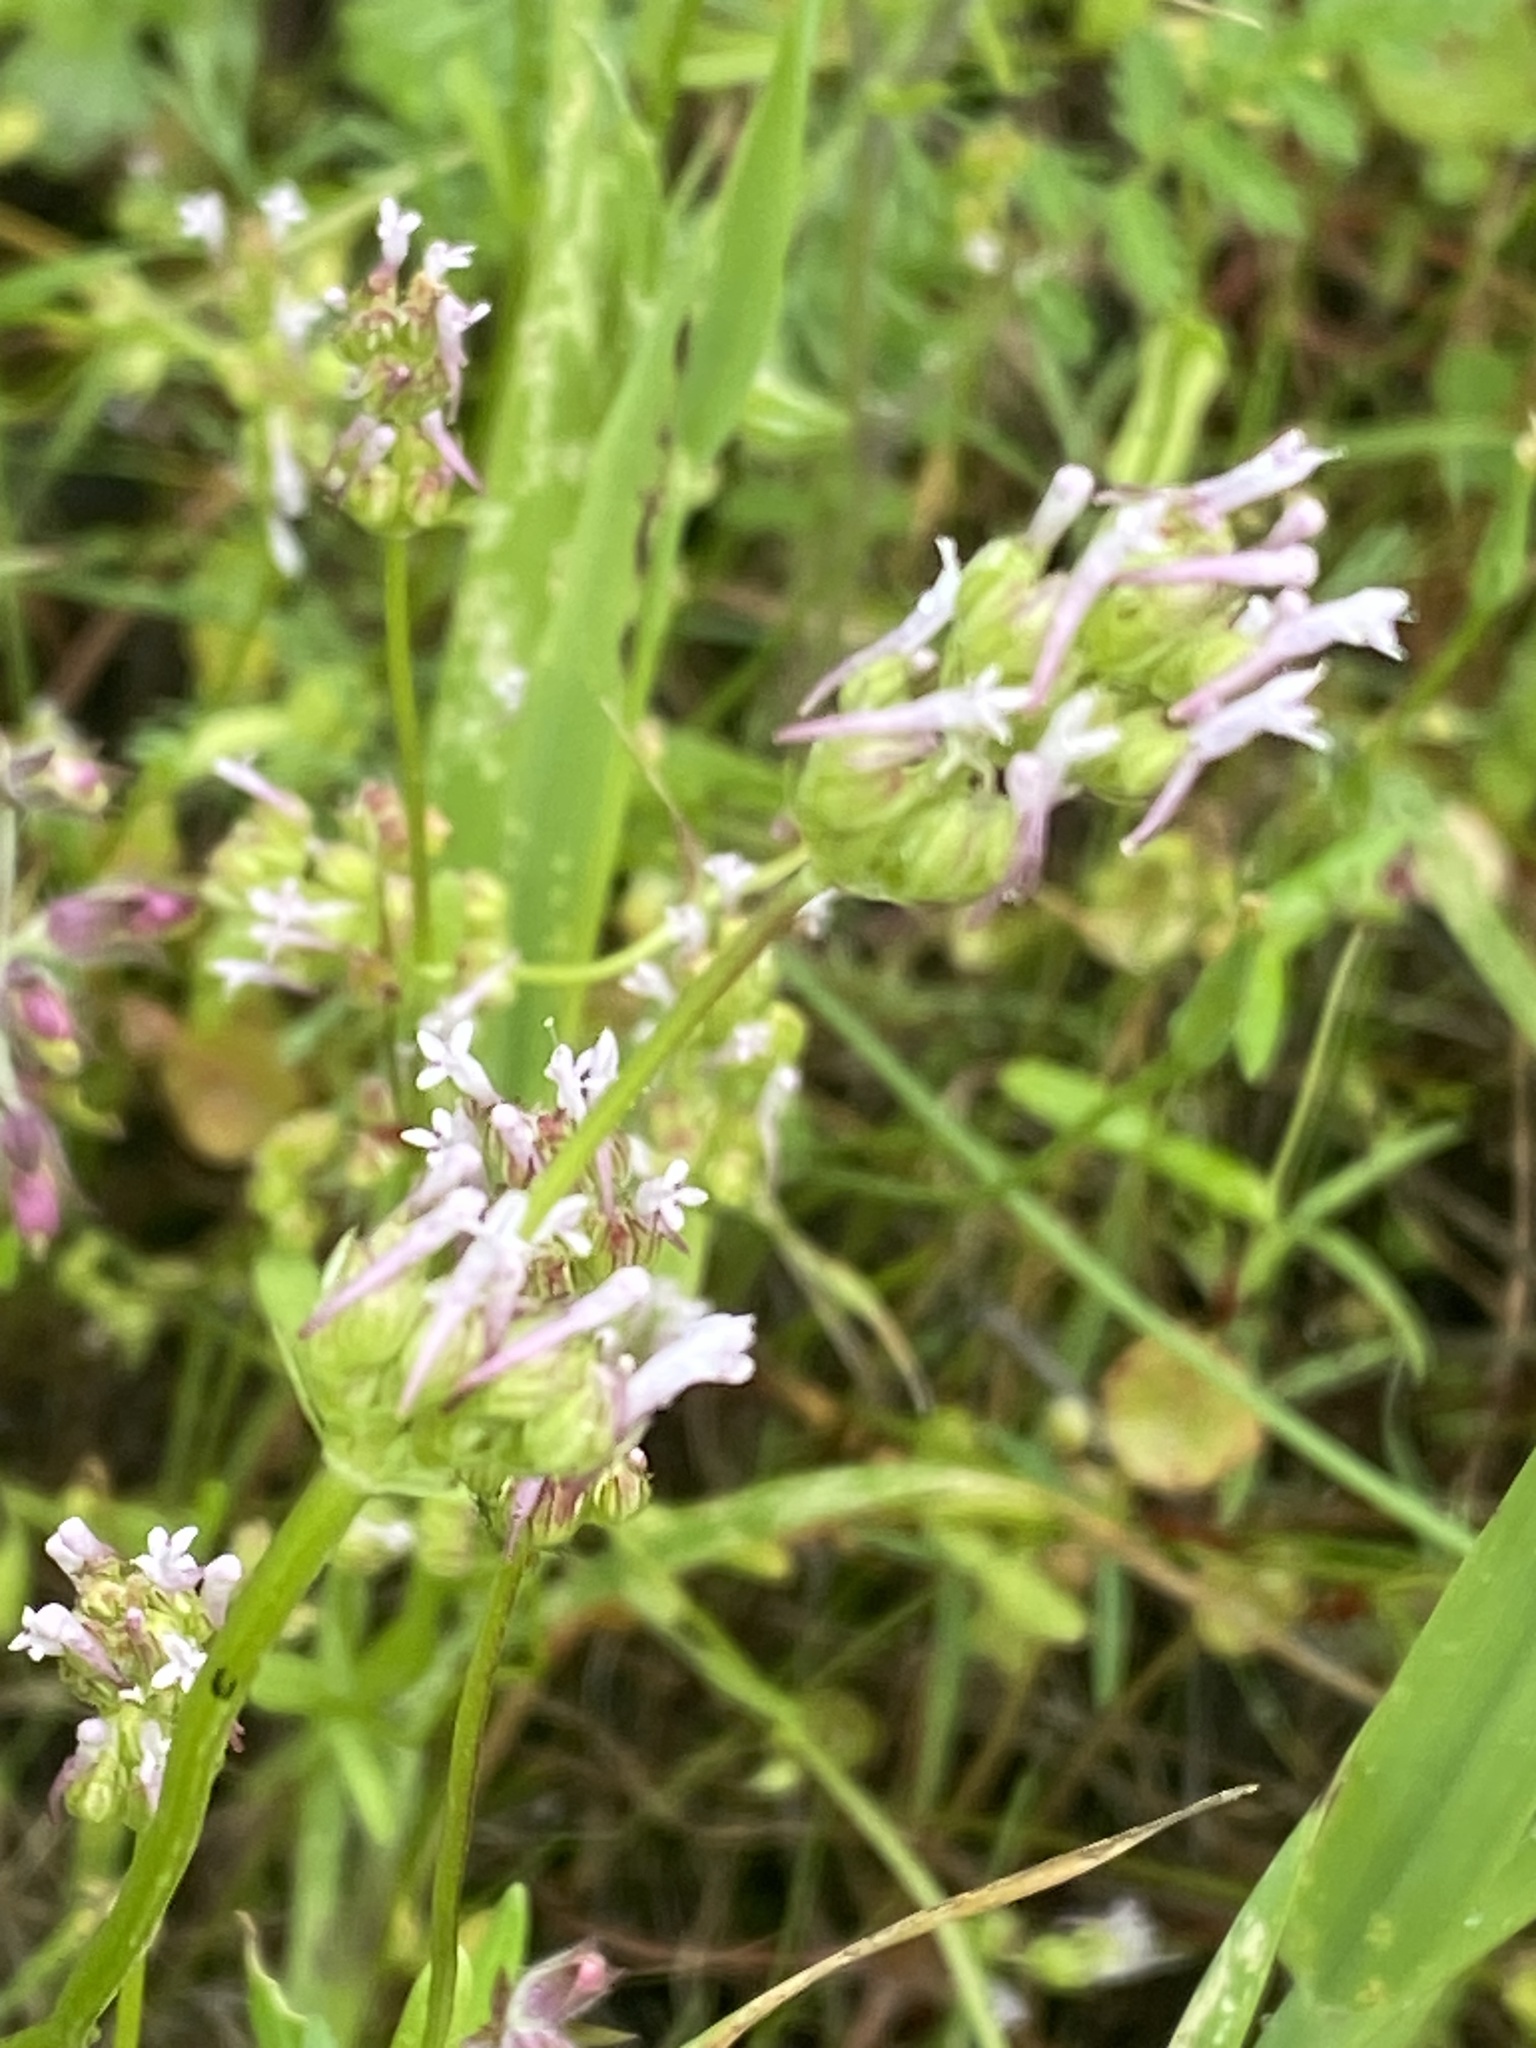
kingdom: Plantae
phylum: Tracheophyta
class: Magnoliopsida
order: Dipsacales
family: Caprifoliaceae
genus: Plectritis
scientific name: Plectritis ciliosa
